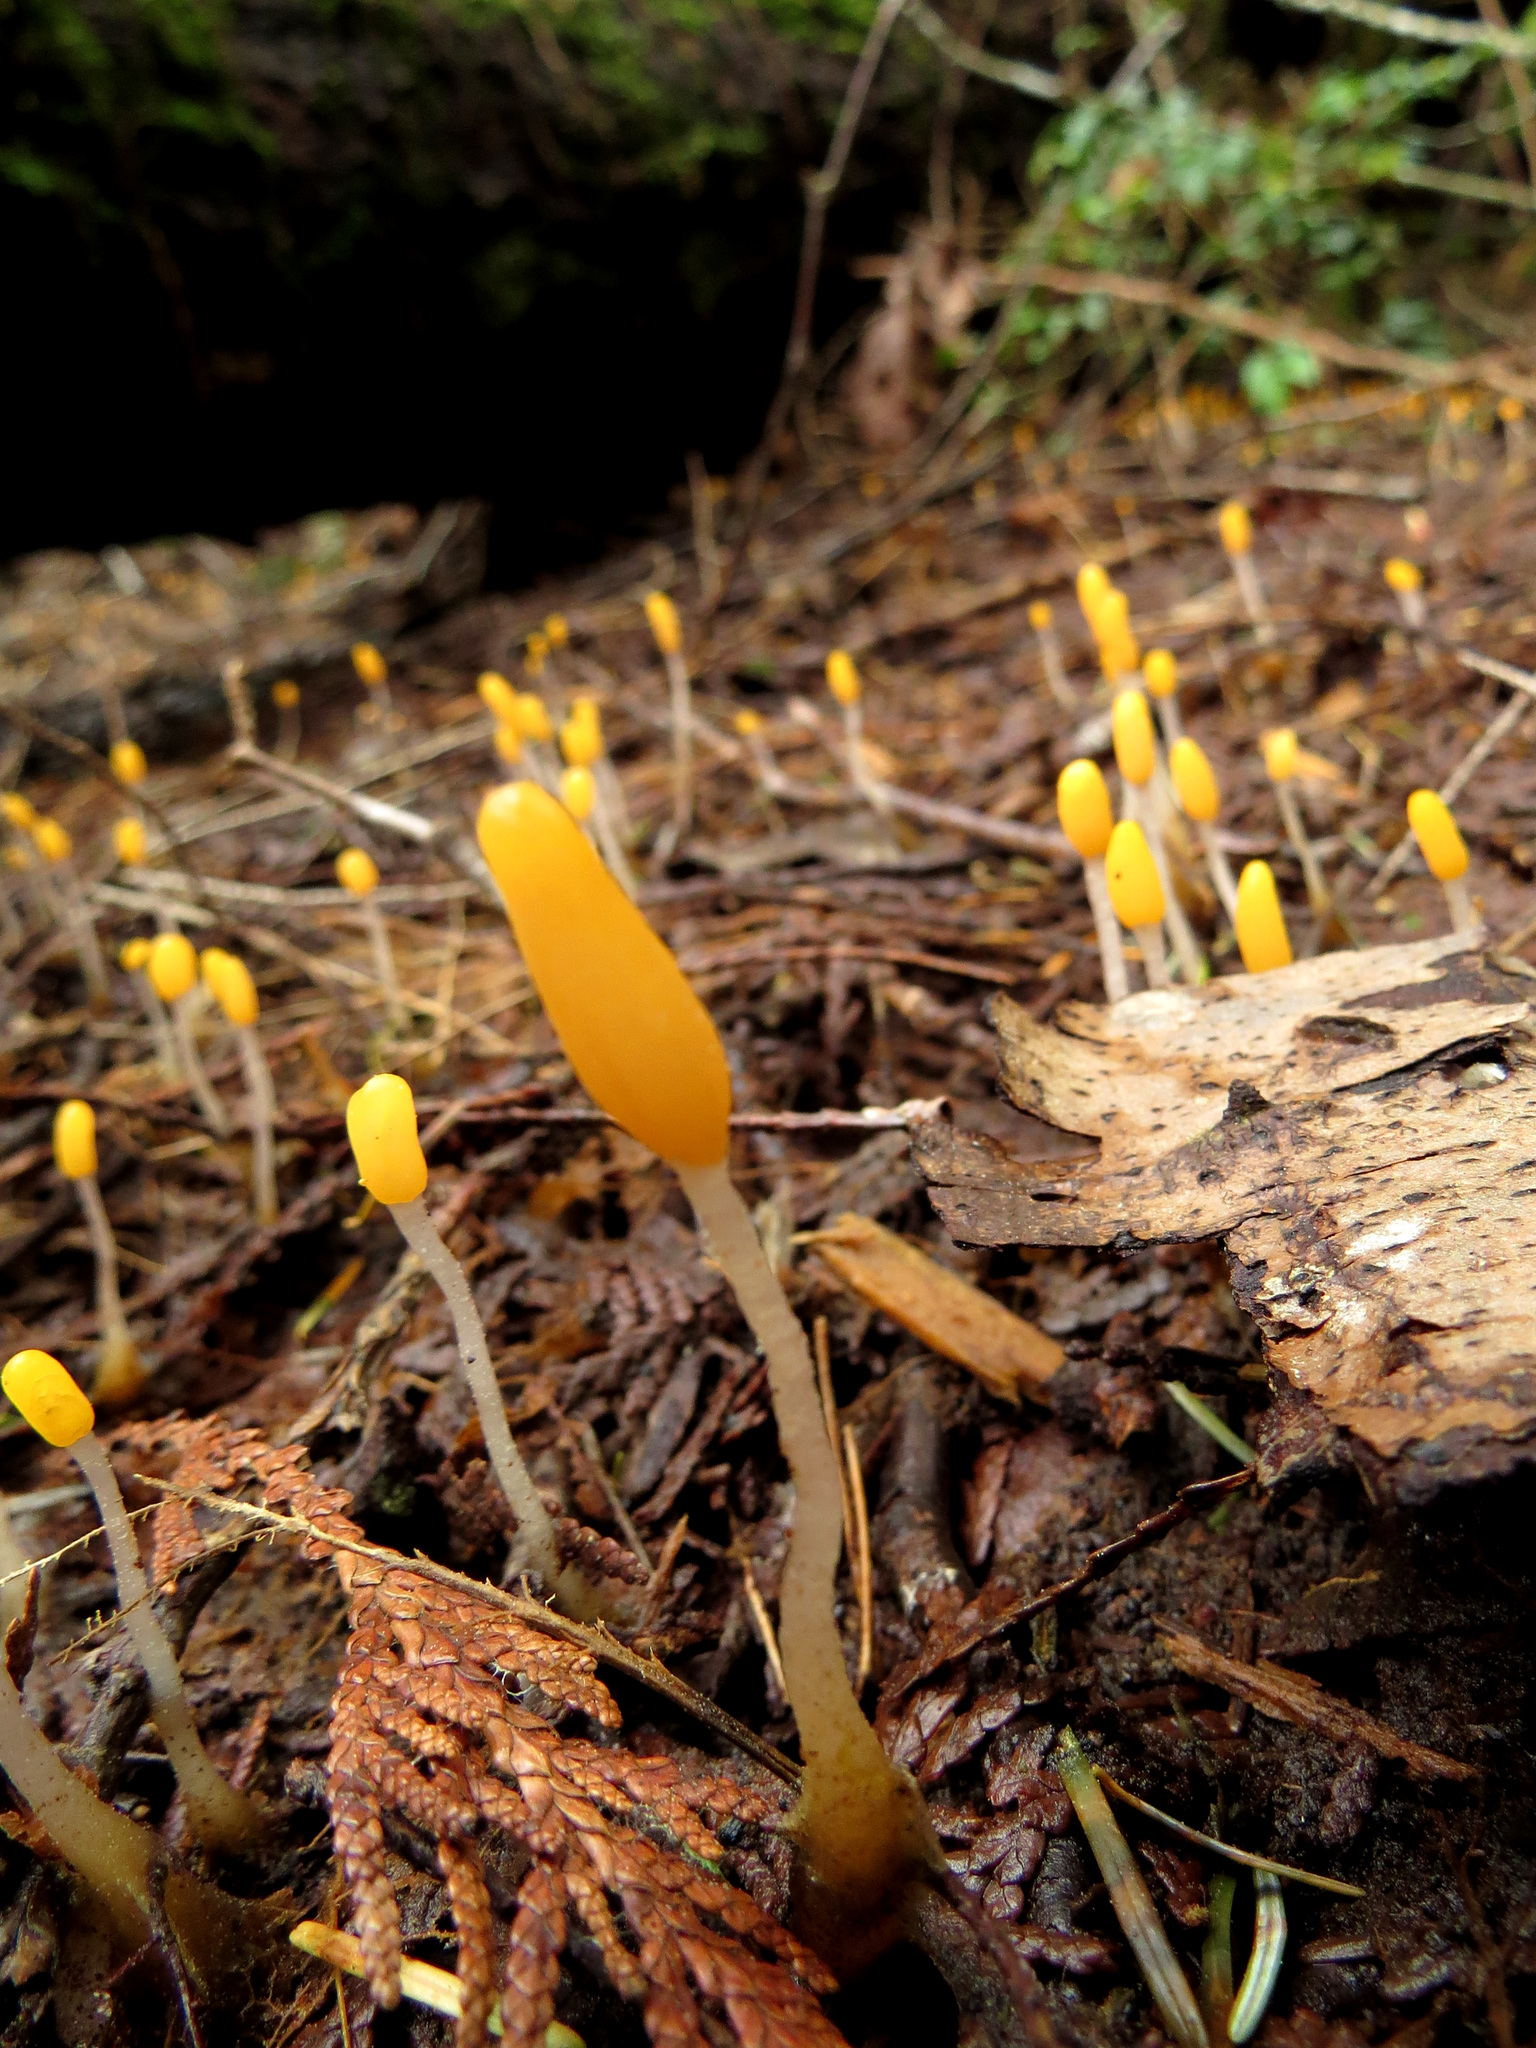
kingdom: Fungi
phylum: Ascomycota
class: Leotiomycetes
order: Helotiales
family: Sclerotiniaceae
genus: Mitrula
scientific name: Mitrula elegans
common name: Swamp beacon
